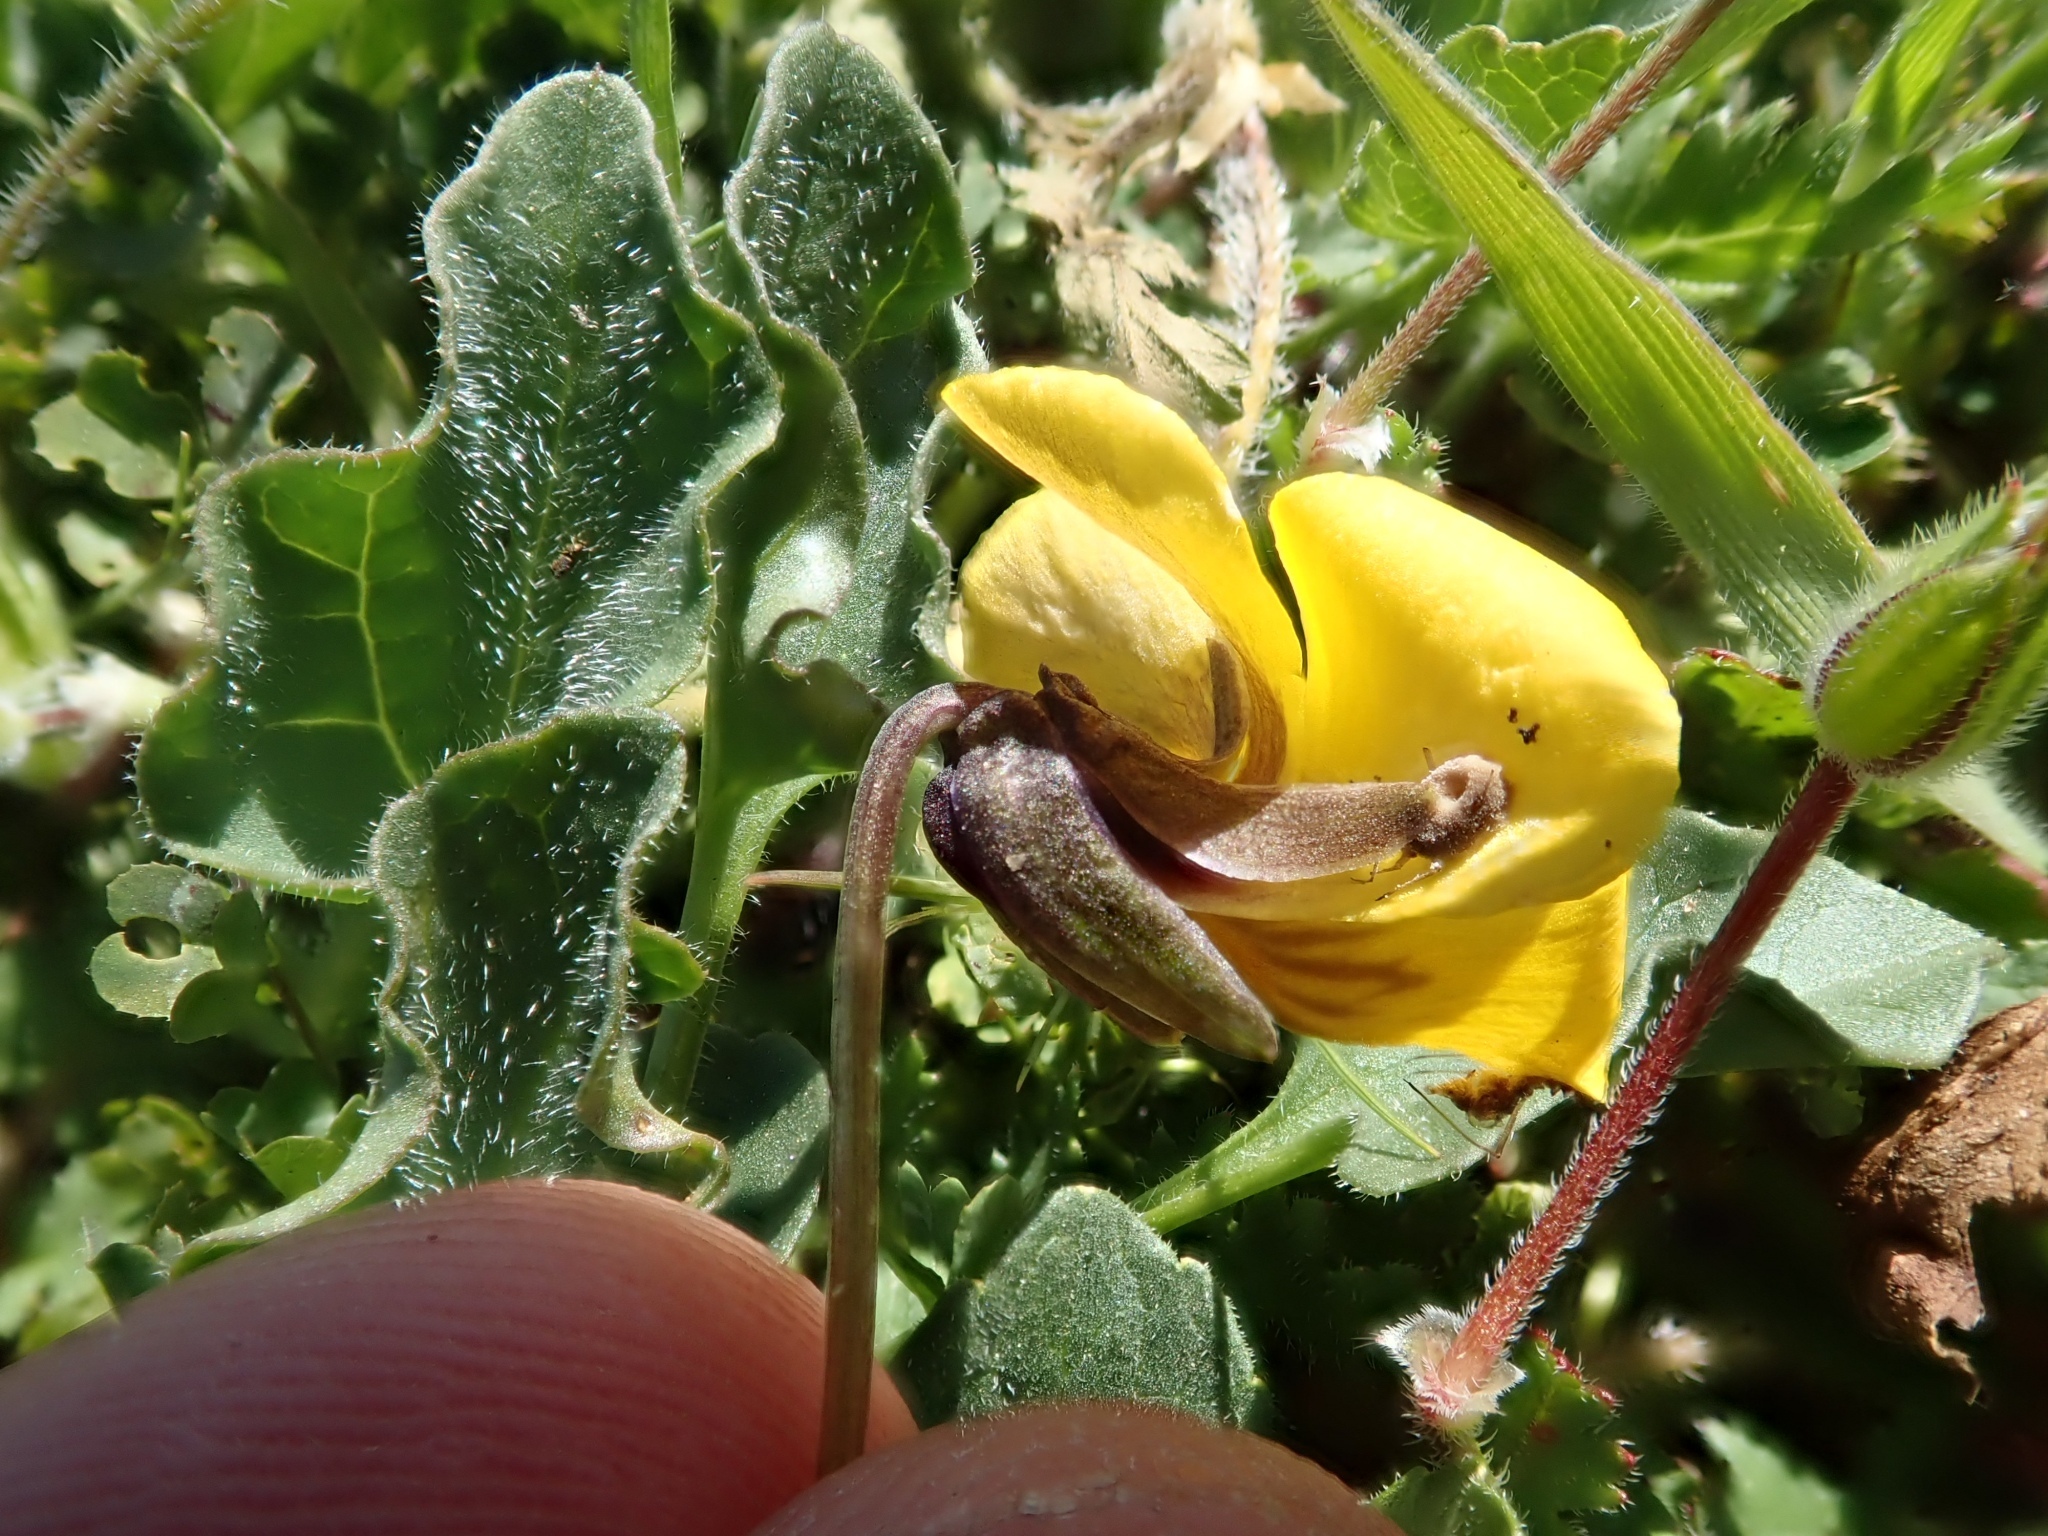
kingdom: Plantae
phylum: Tracheophyta
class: Magnoliopsida
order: Malpighiales
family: Violaceae
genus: Viola
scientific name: Viola pedunculata
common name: California golden violet
